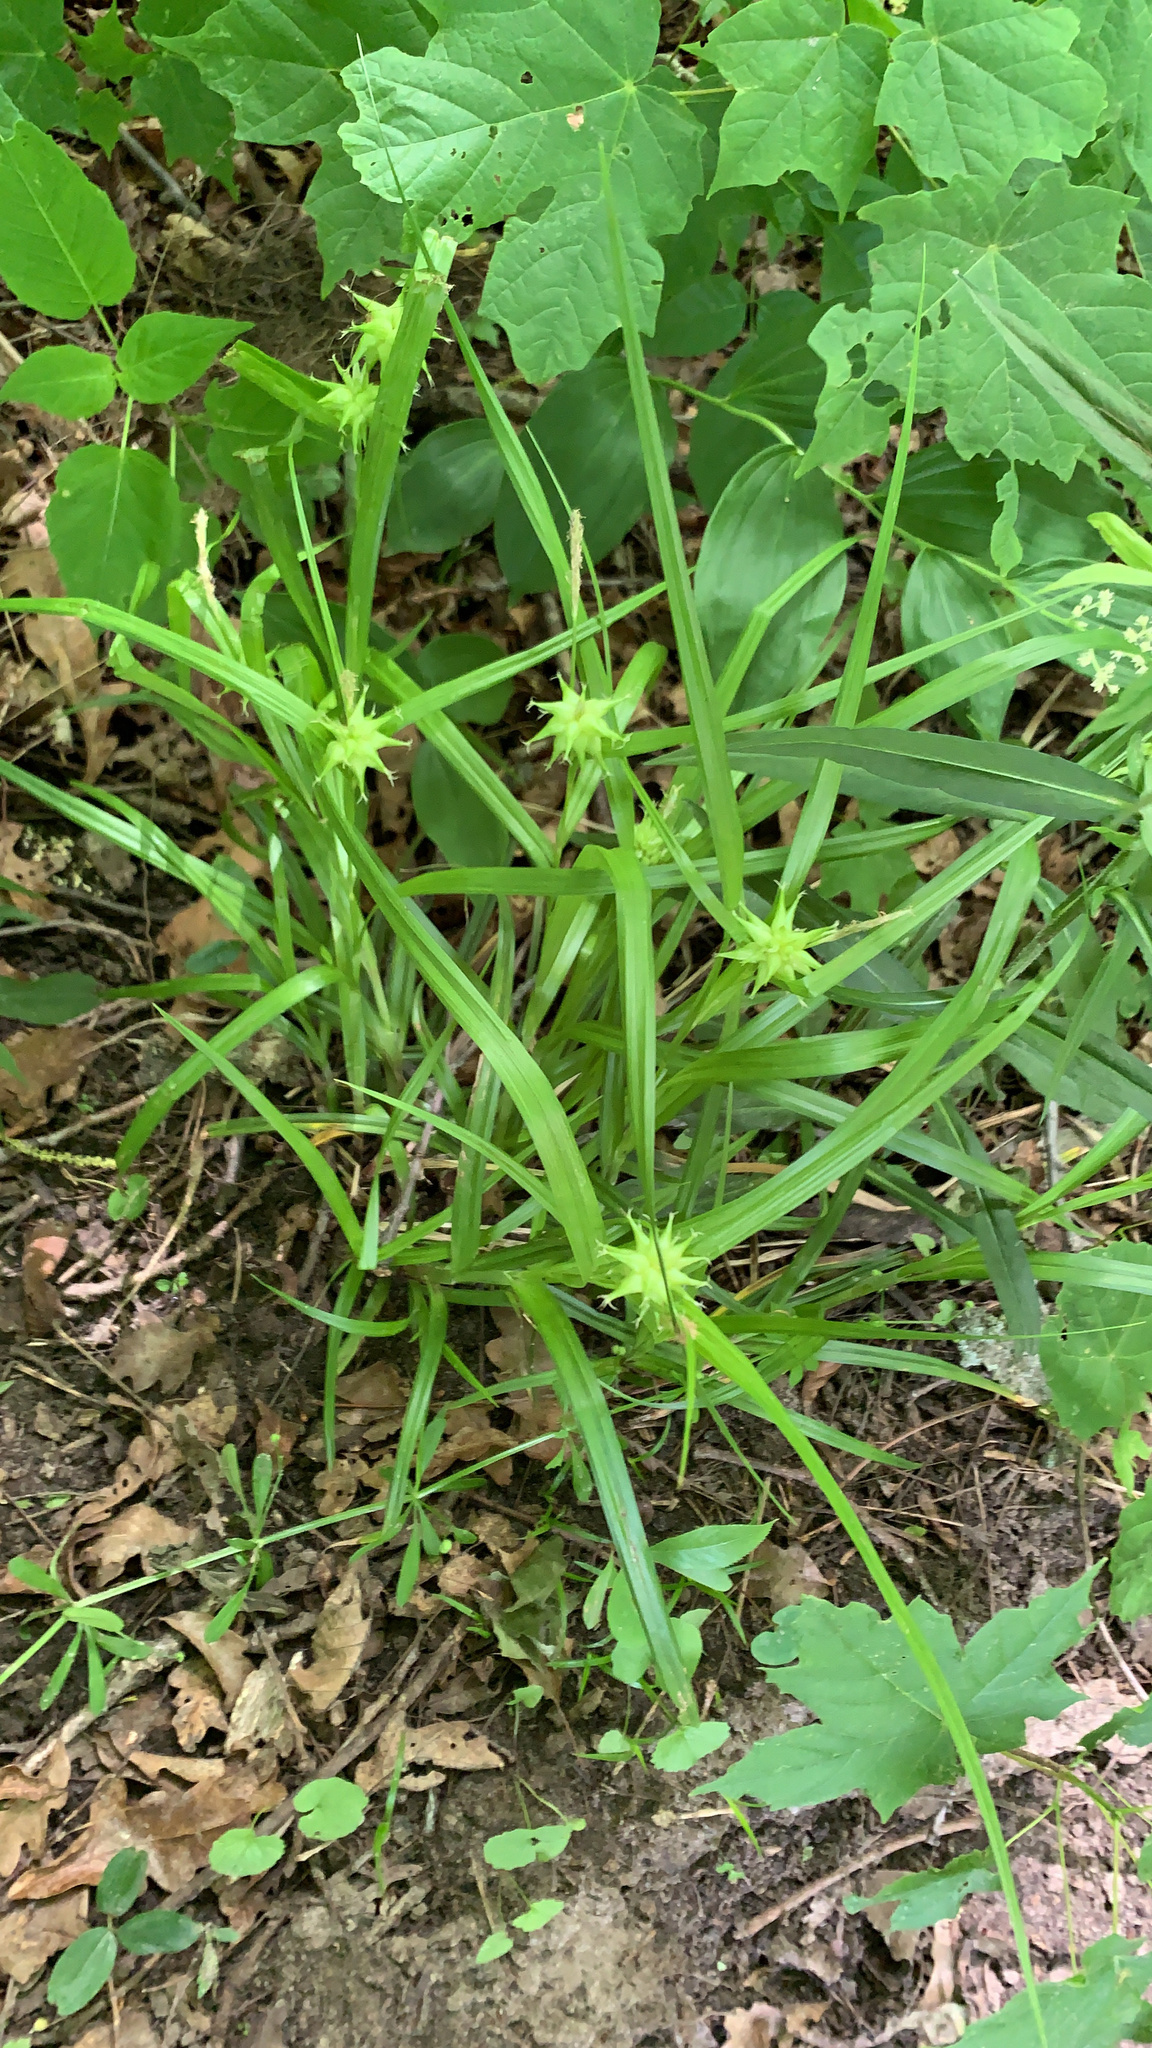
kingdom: Plantae
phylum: Tracheophyta
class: Liliopsida
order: Poales
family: Cyperaceae
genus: Carex
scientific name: Carex grayi
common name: Asa gray's sedge
